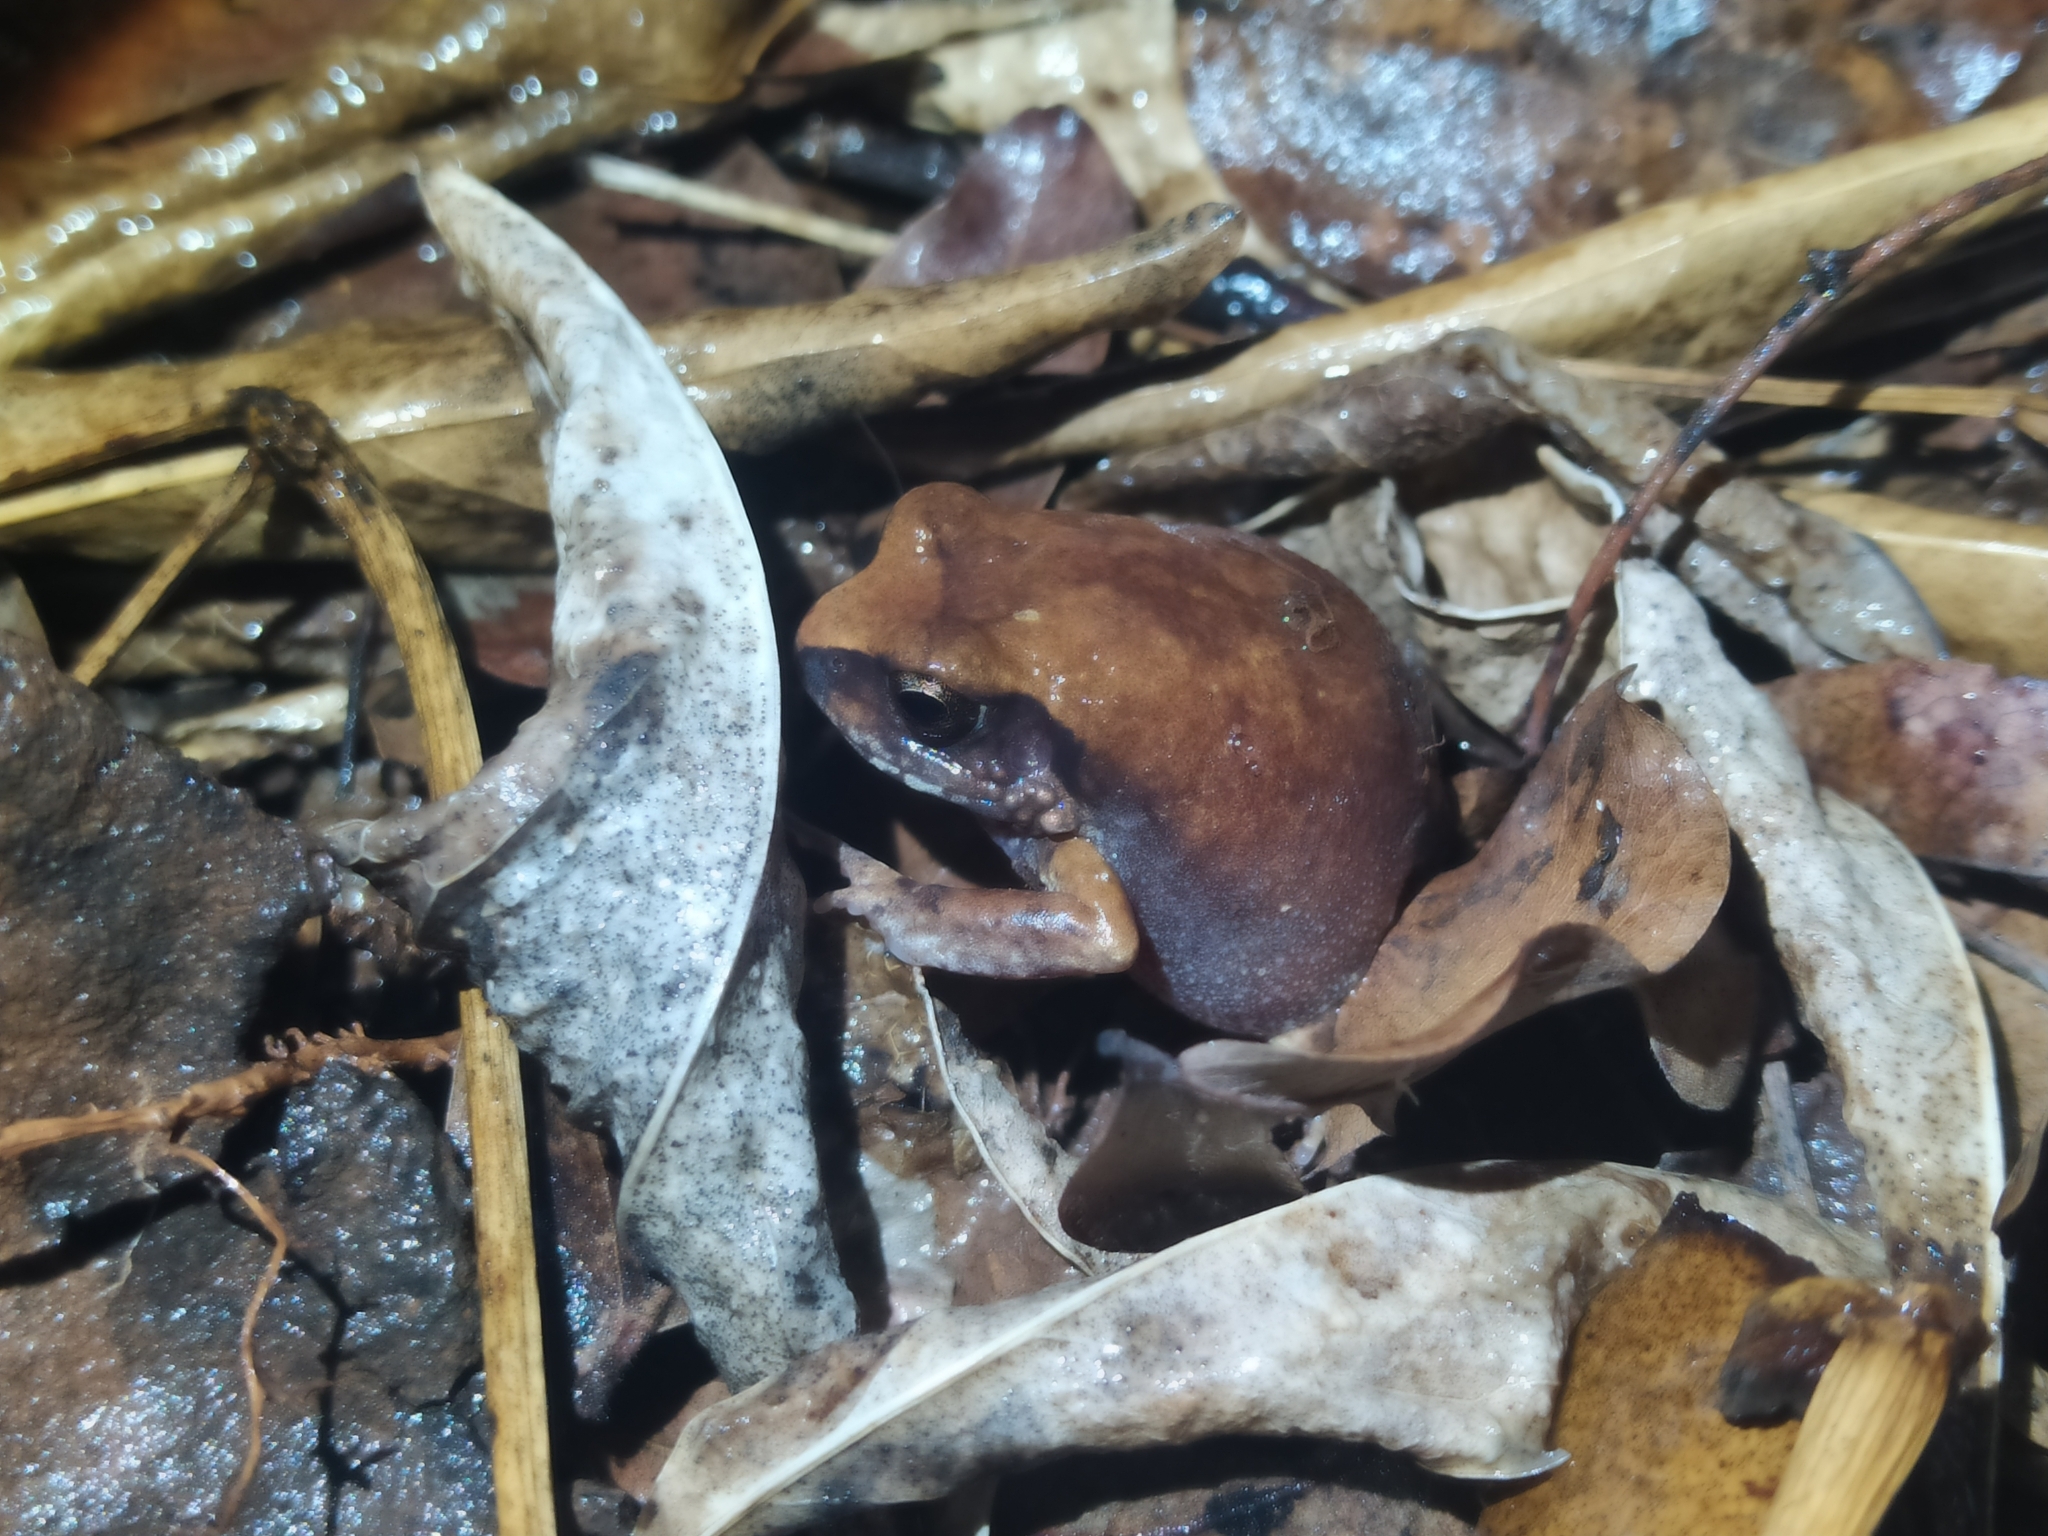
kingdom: Animalia
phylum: Chordata
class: Amphibia
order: Anura
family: Arthroleptidae
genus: Arthroleptis
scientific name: Arthroleptis stenodactylus
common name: Dune squeaker
